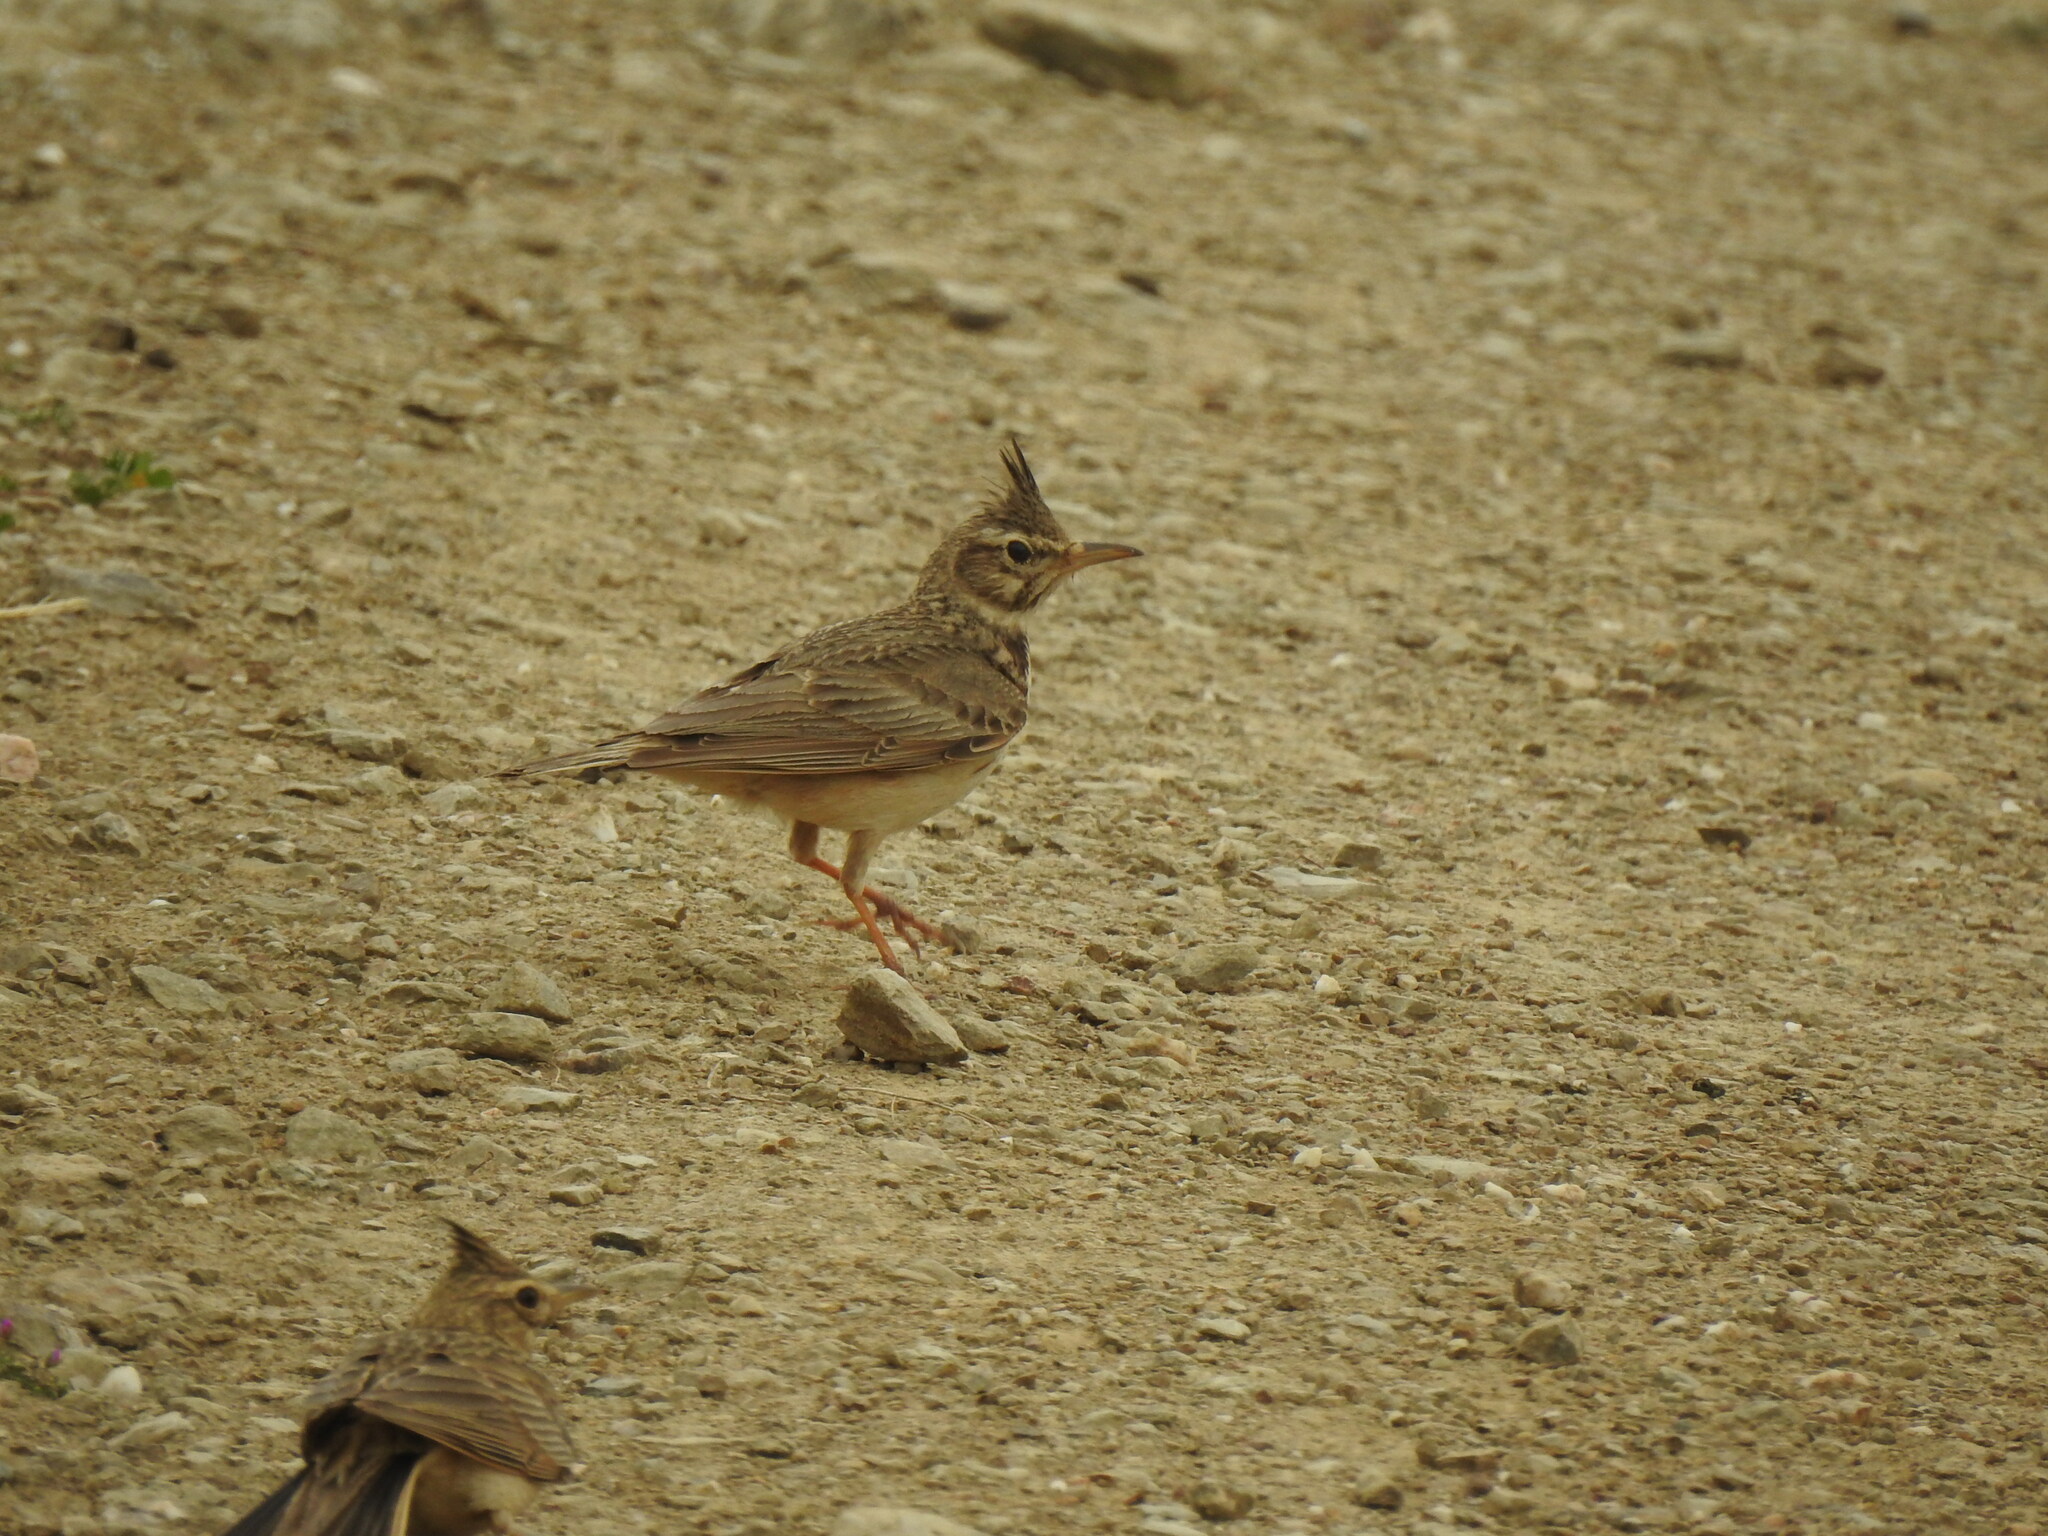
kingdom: Animalia
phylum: Chordata
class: Aves
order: Passeriformes
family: Alaudidae
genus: Galerida
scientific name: Galerida cristata
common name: Crested lark
